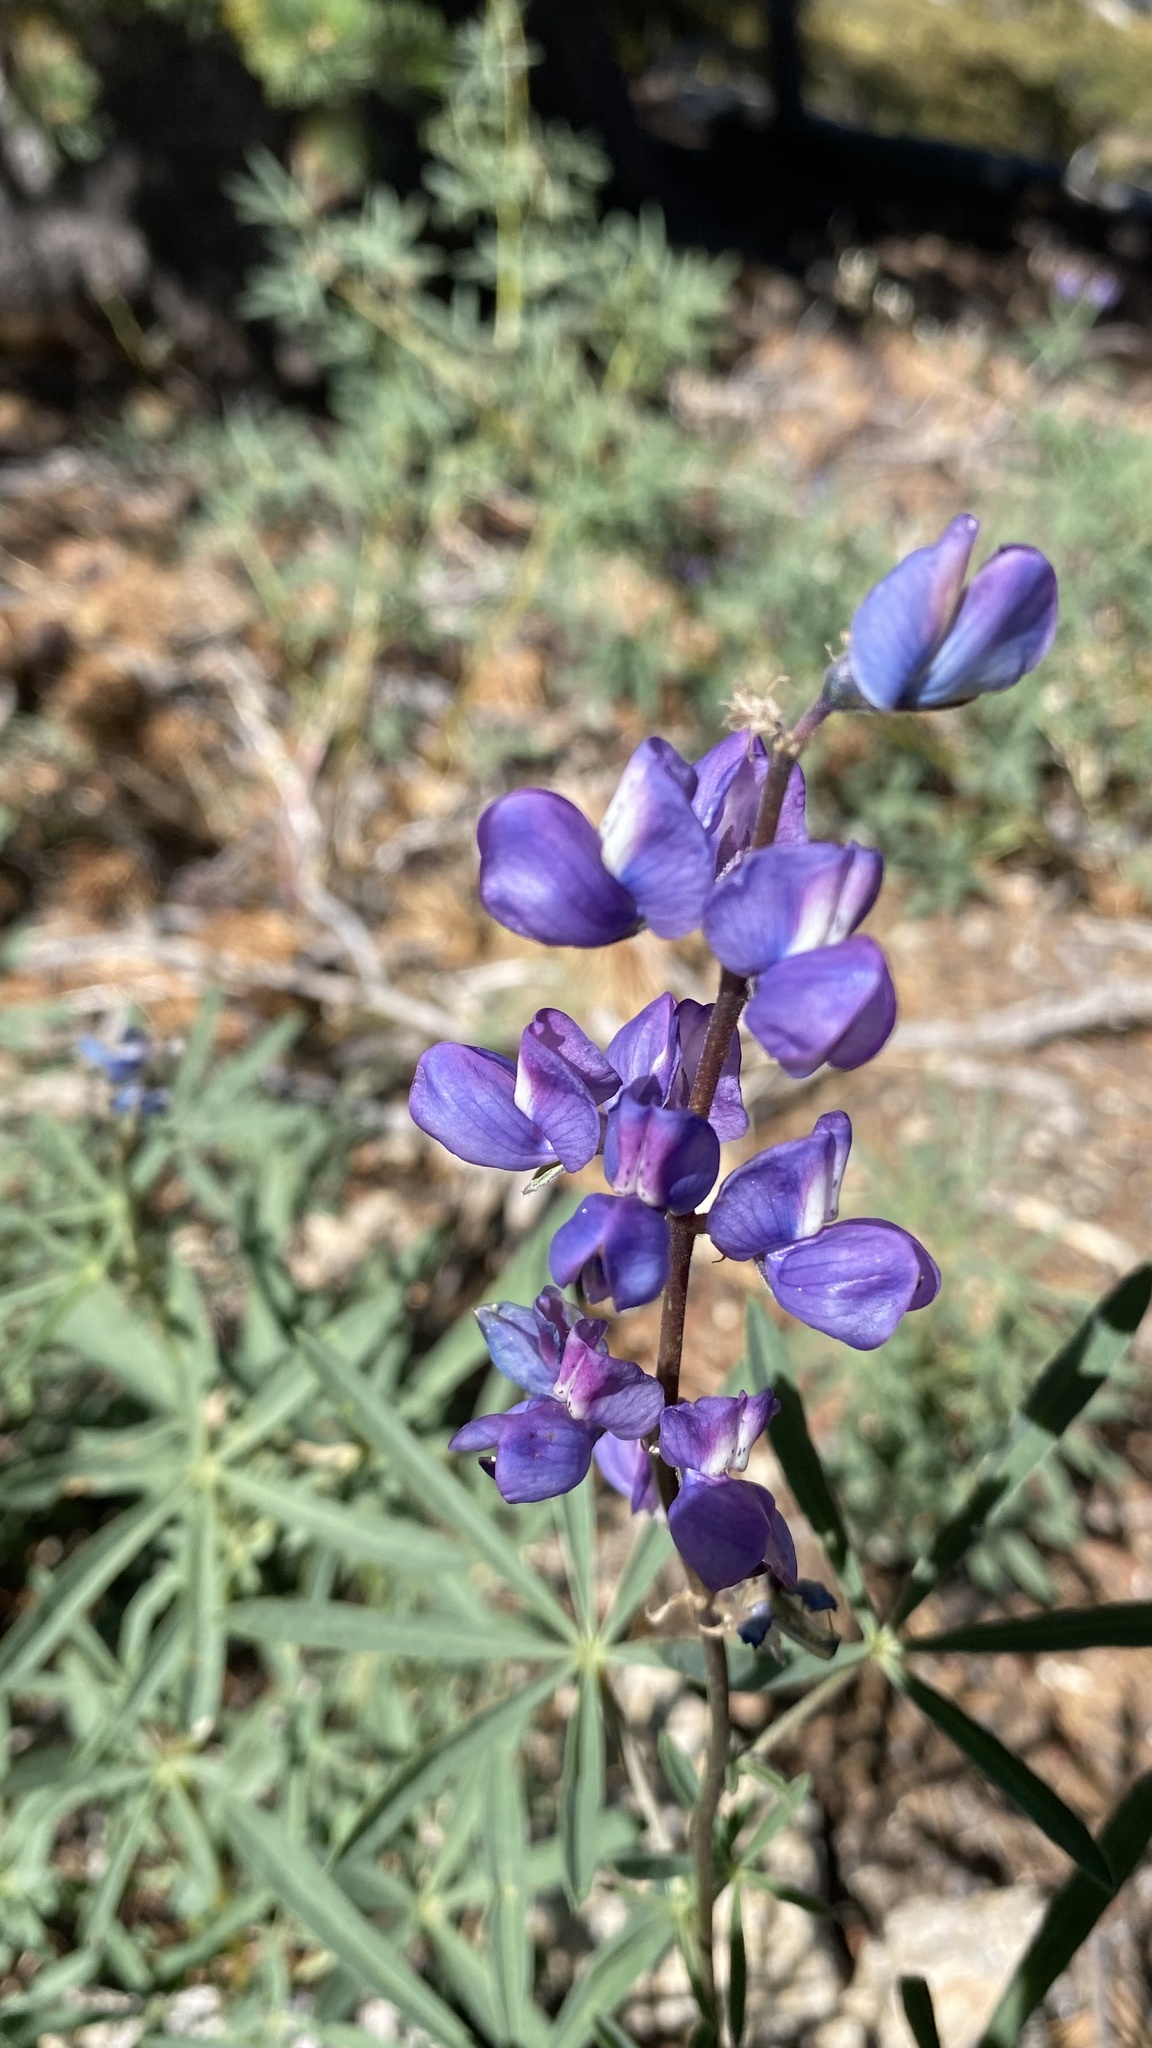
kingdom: Plantae
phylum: Tracheophyta
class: Magnoliopsida
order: Fabales
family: Fabaceae
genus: Lupinus
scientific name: Lupinus hyacinthinus
